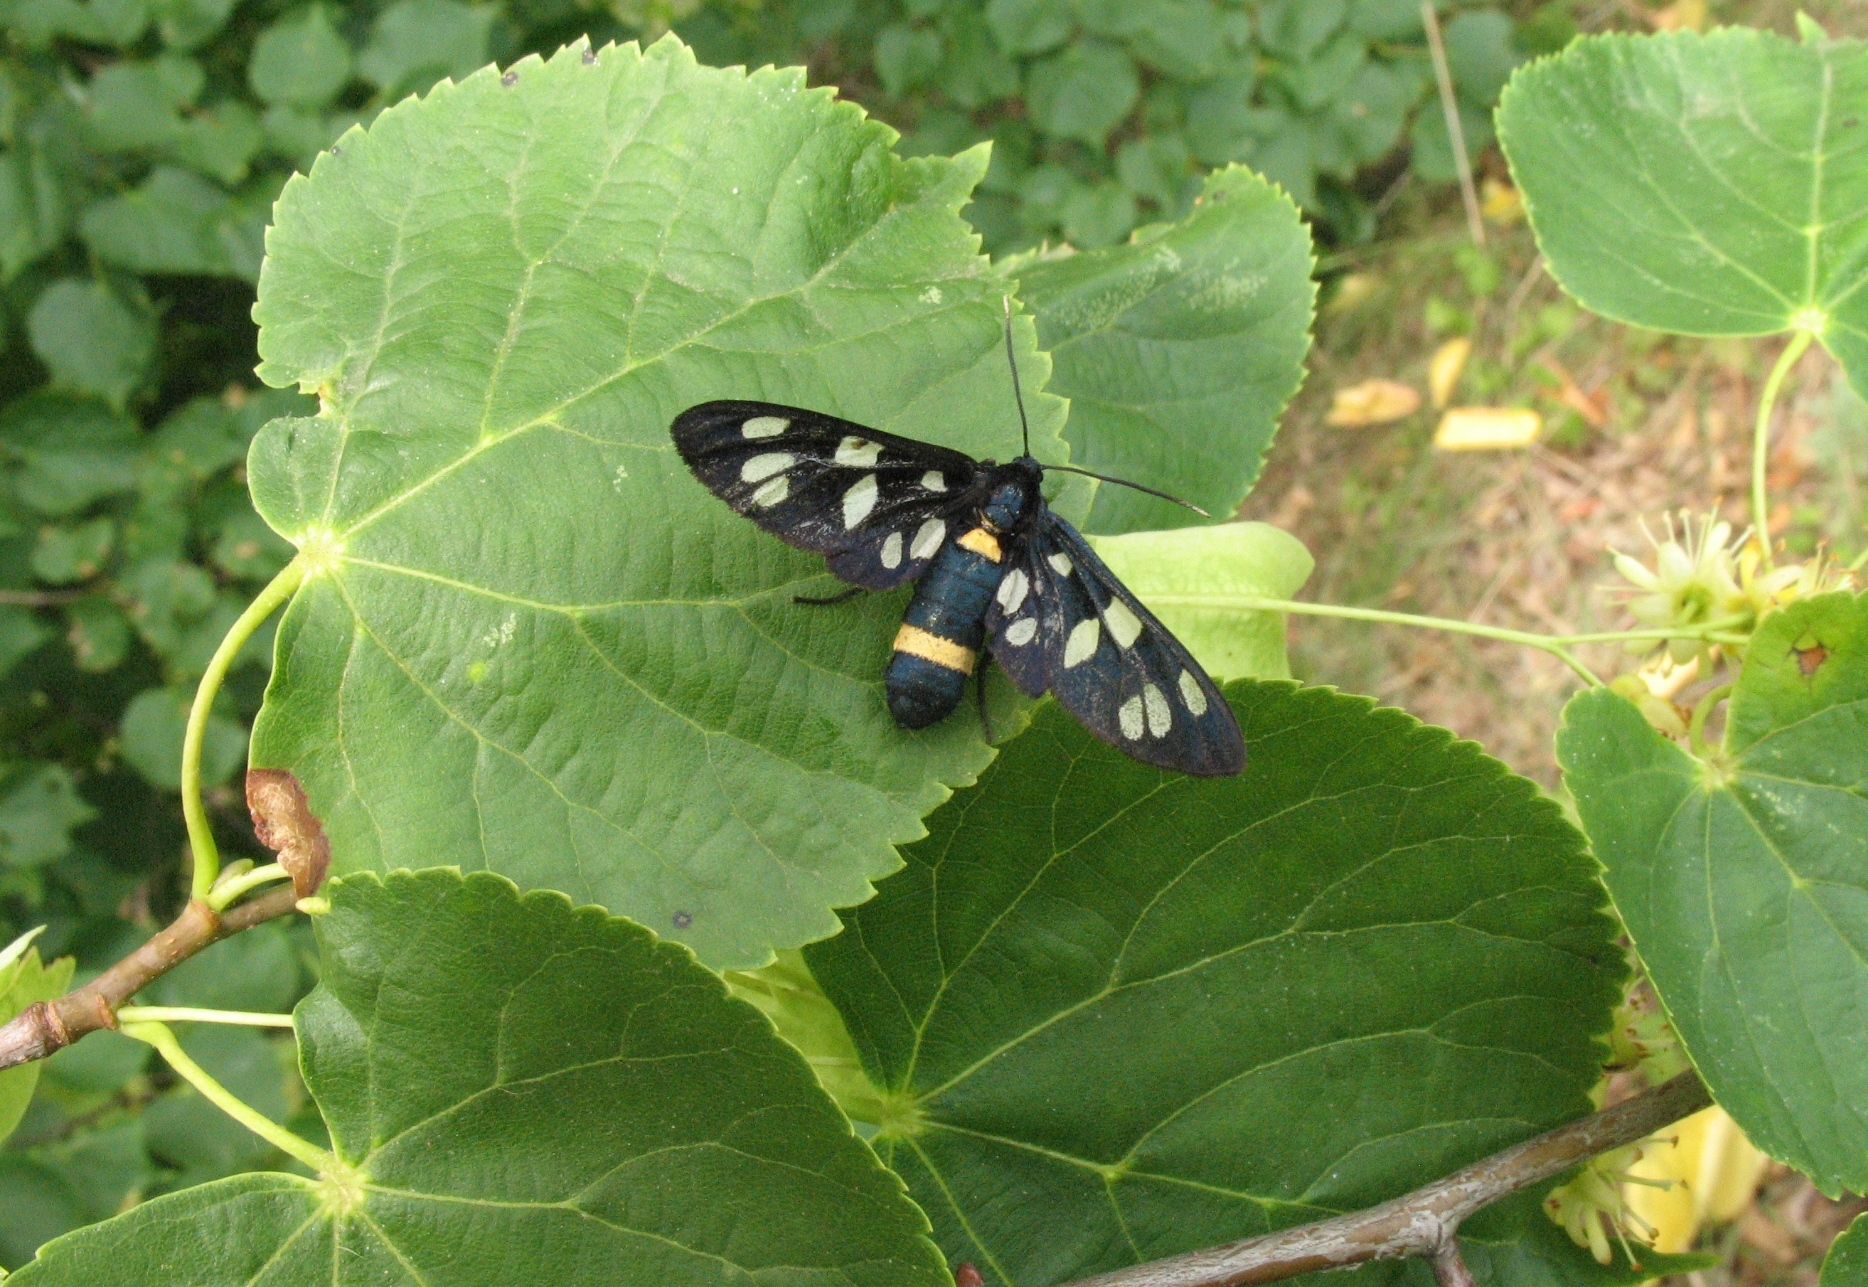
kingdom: Animalia
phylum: Arthropoda
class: Insecta
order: Lepidoptera
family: Erebidae
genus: Amata
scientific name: Amata nigricornis
